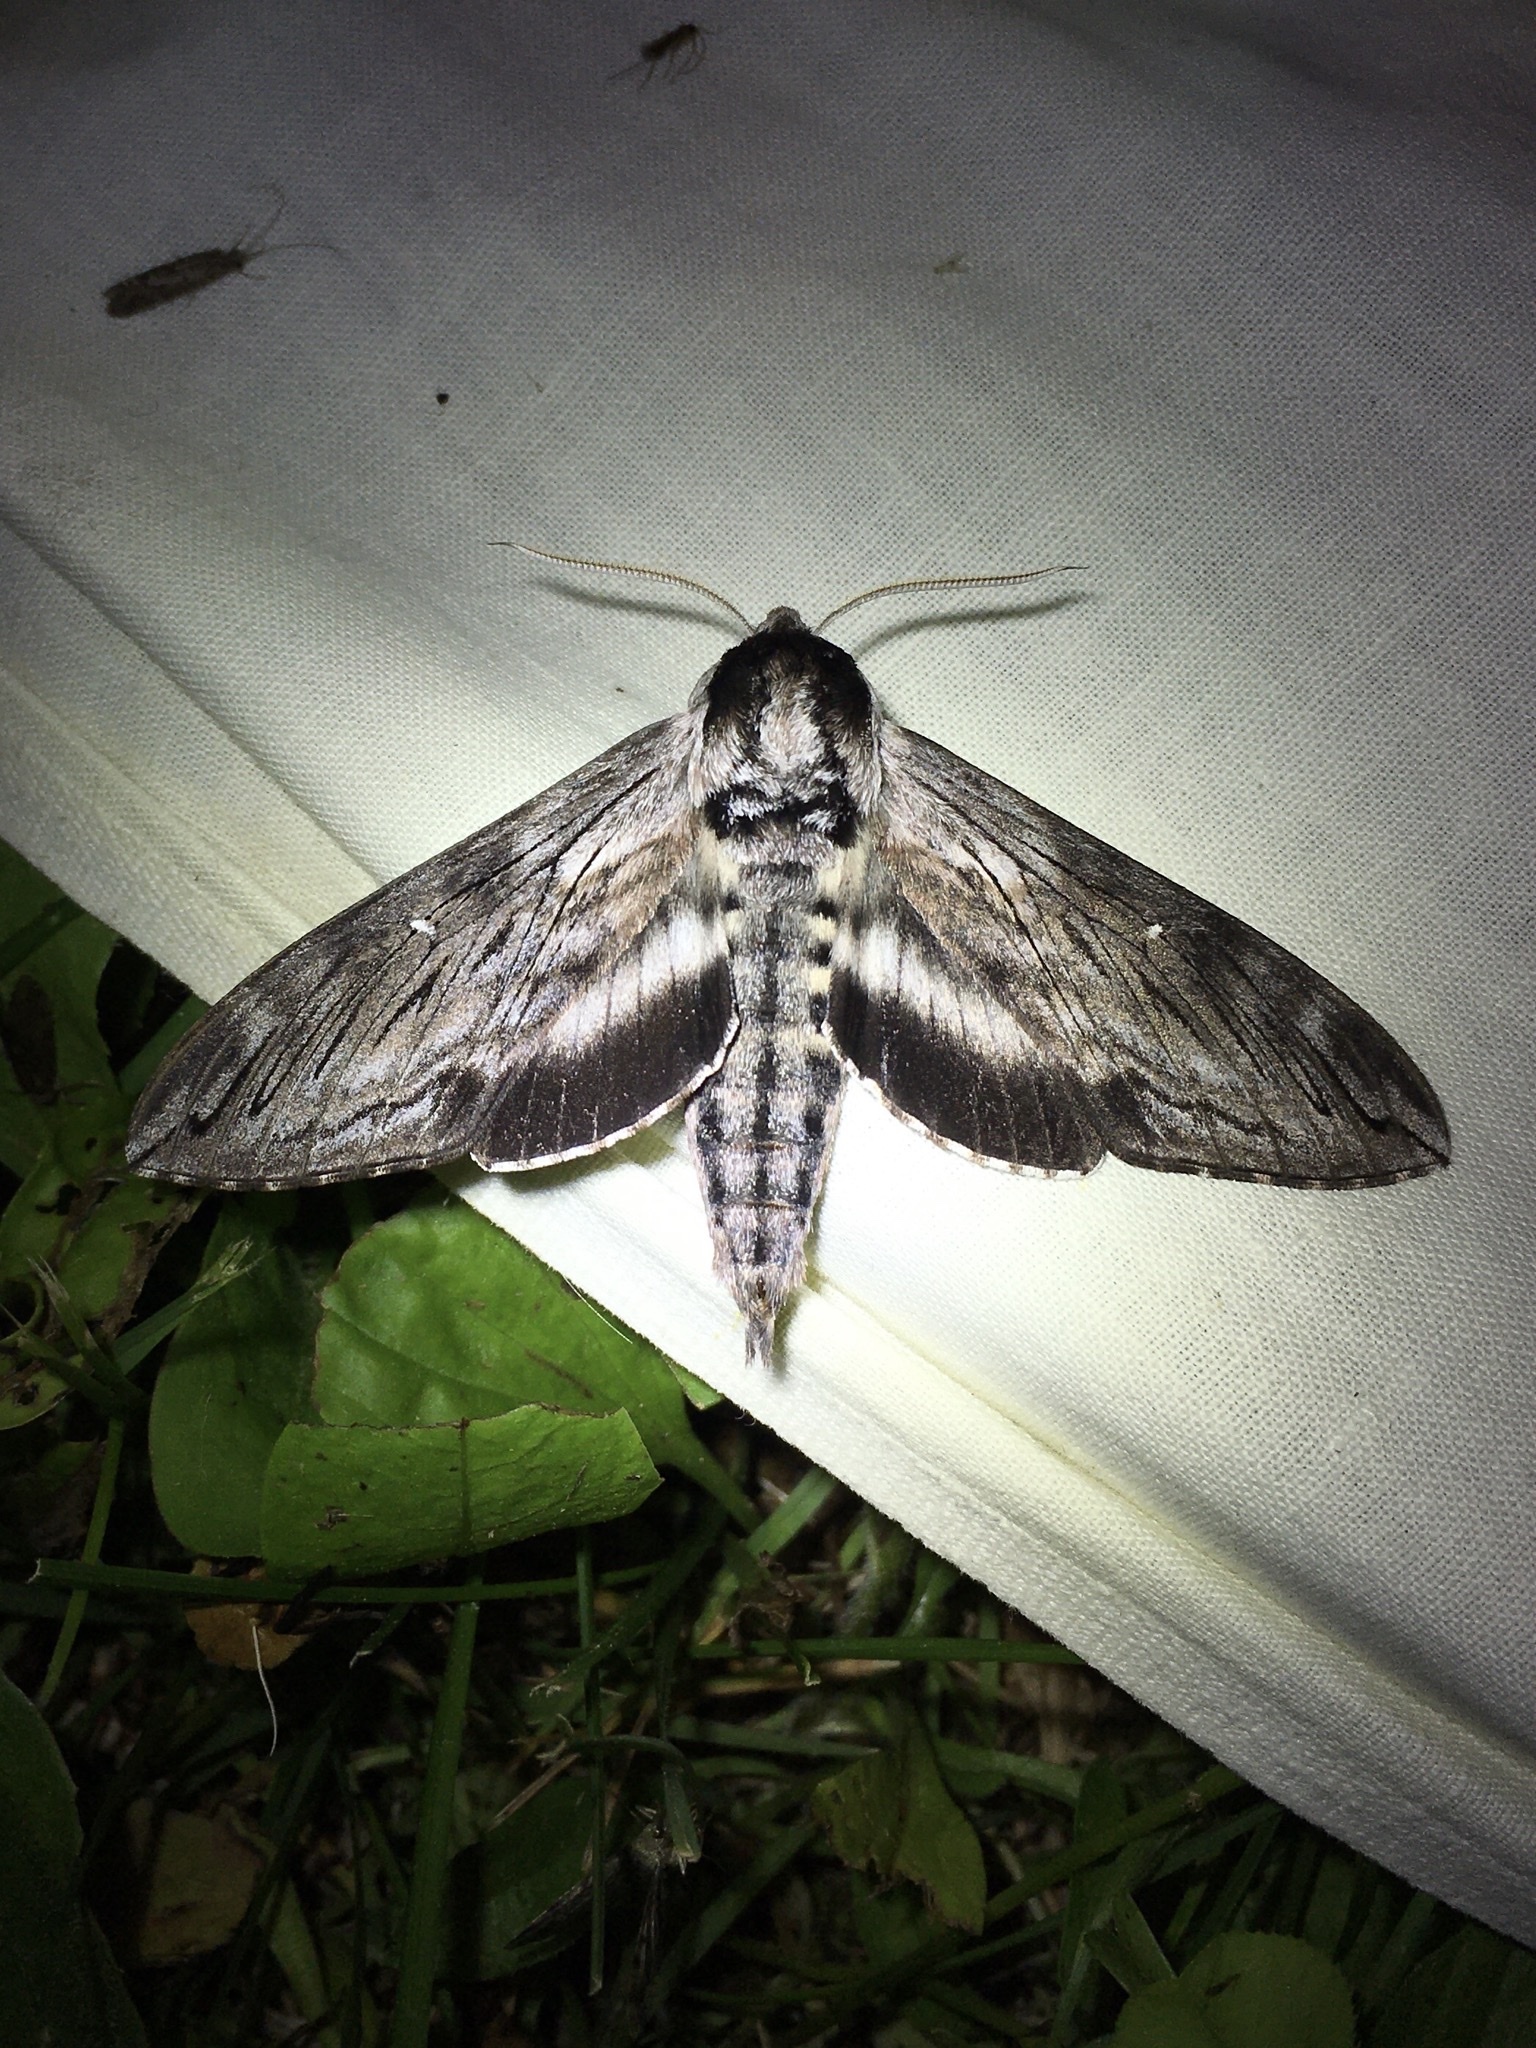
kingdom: Animalia
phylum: Arthropoda
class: Insecta
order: Lepidoptera
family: Sphingidae
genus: Sphinx
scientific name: Sphinx poecila
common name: Northern apple sphinx
